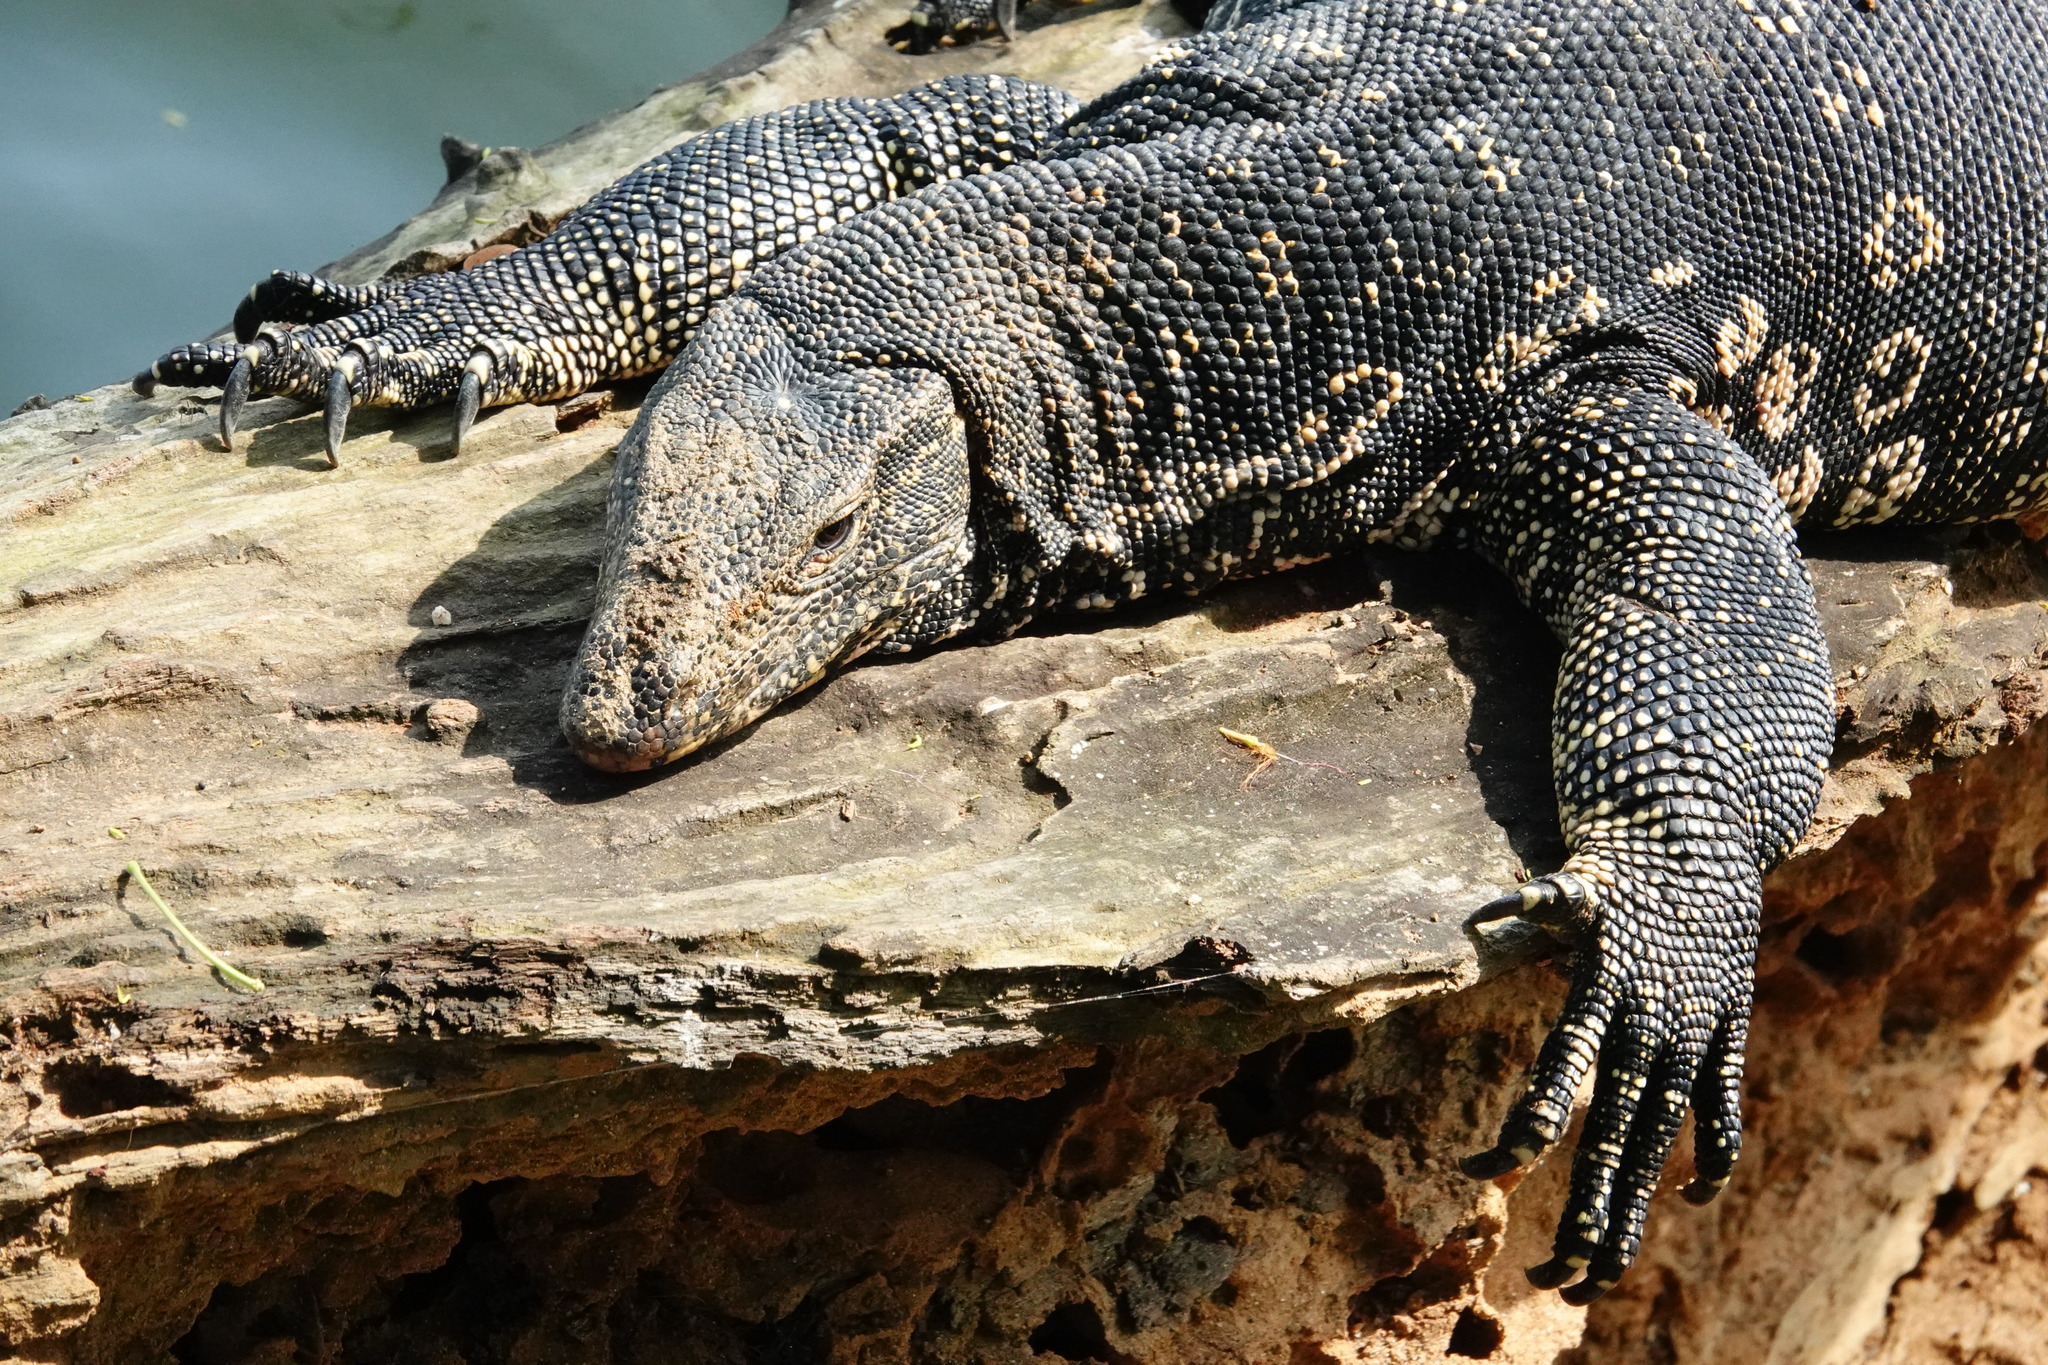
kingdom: Animalia
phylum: Chordata
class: Squamata
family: Varanidae
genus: Varanus
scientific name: Varanus salvator
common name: Common water monitor
